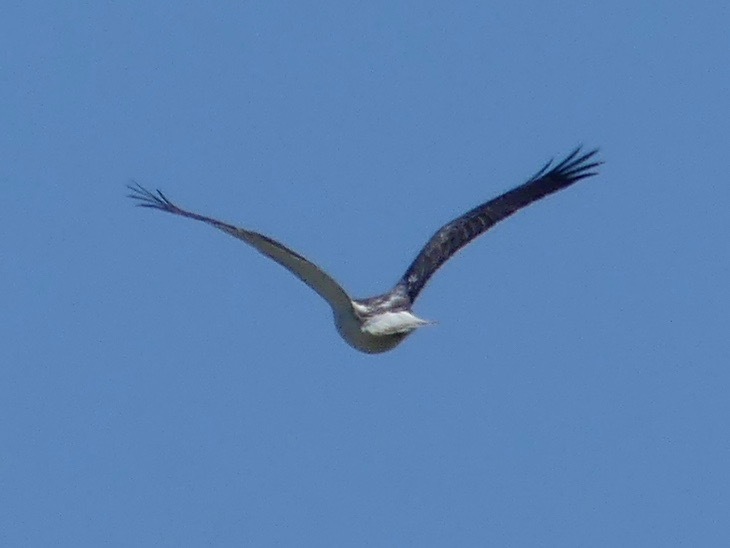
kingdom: Animalia
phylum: Chordata
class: Aves
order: Accipitriformes
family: Accipitridae
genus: Buteo
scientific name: Buteo jamaicensis
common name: Red-tailed hawk
